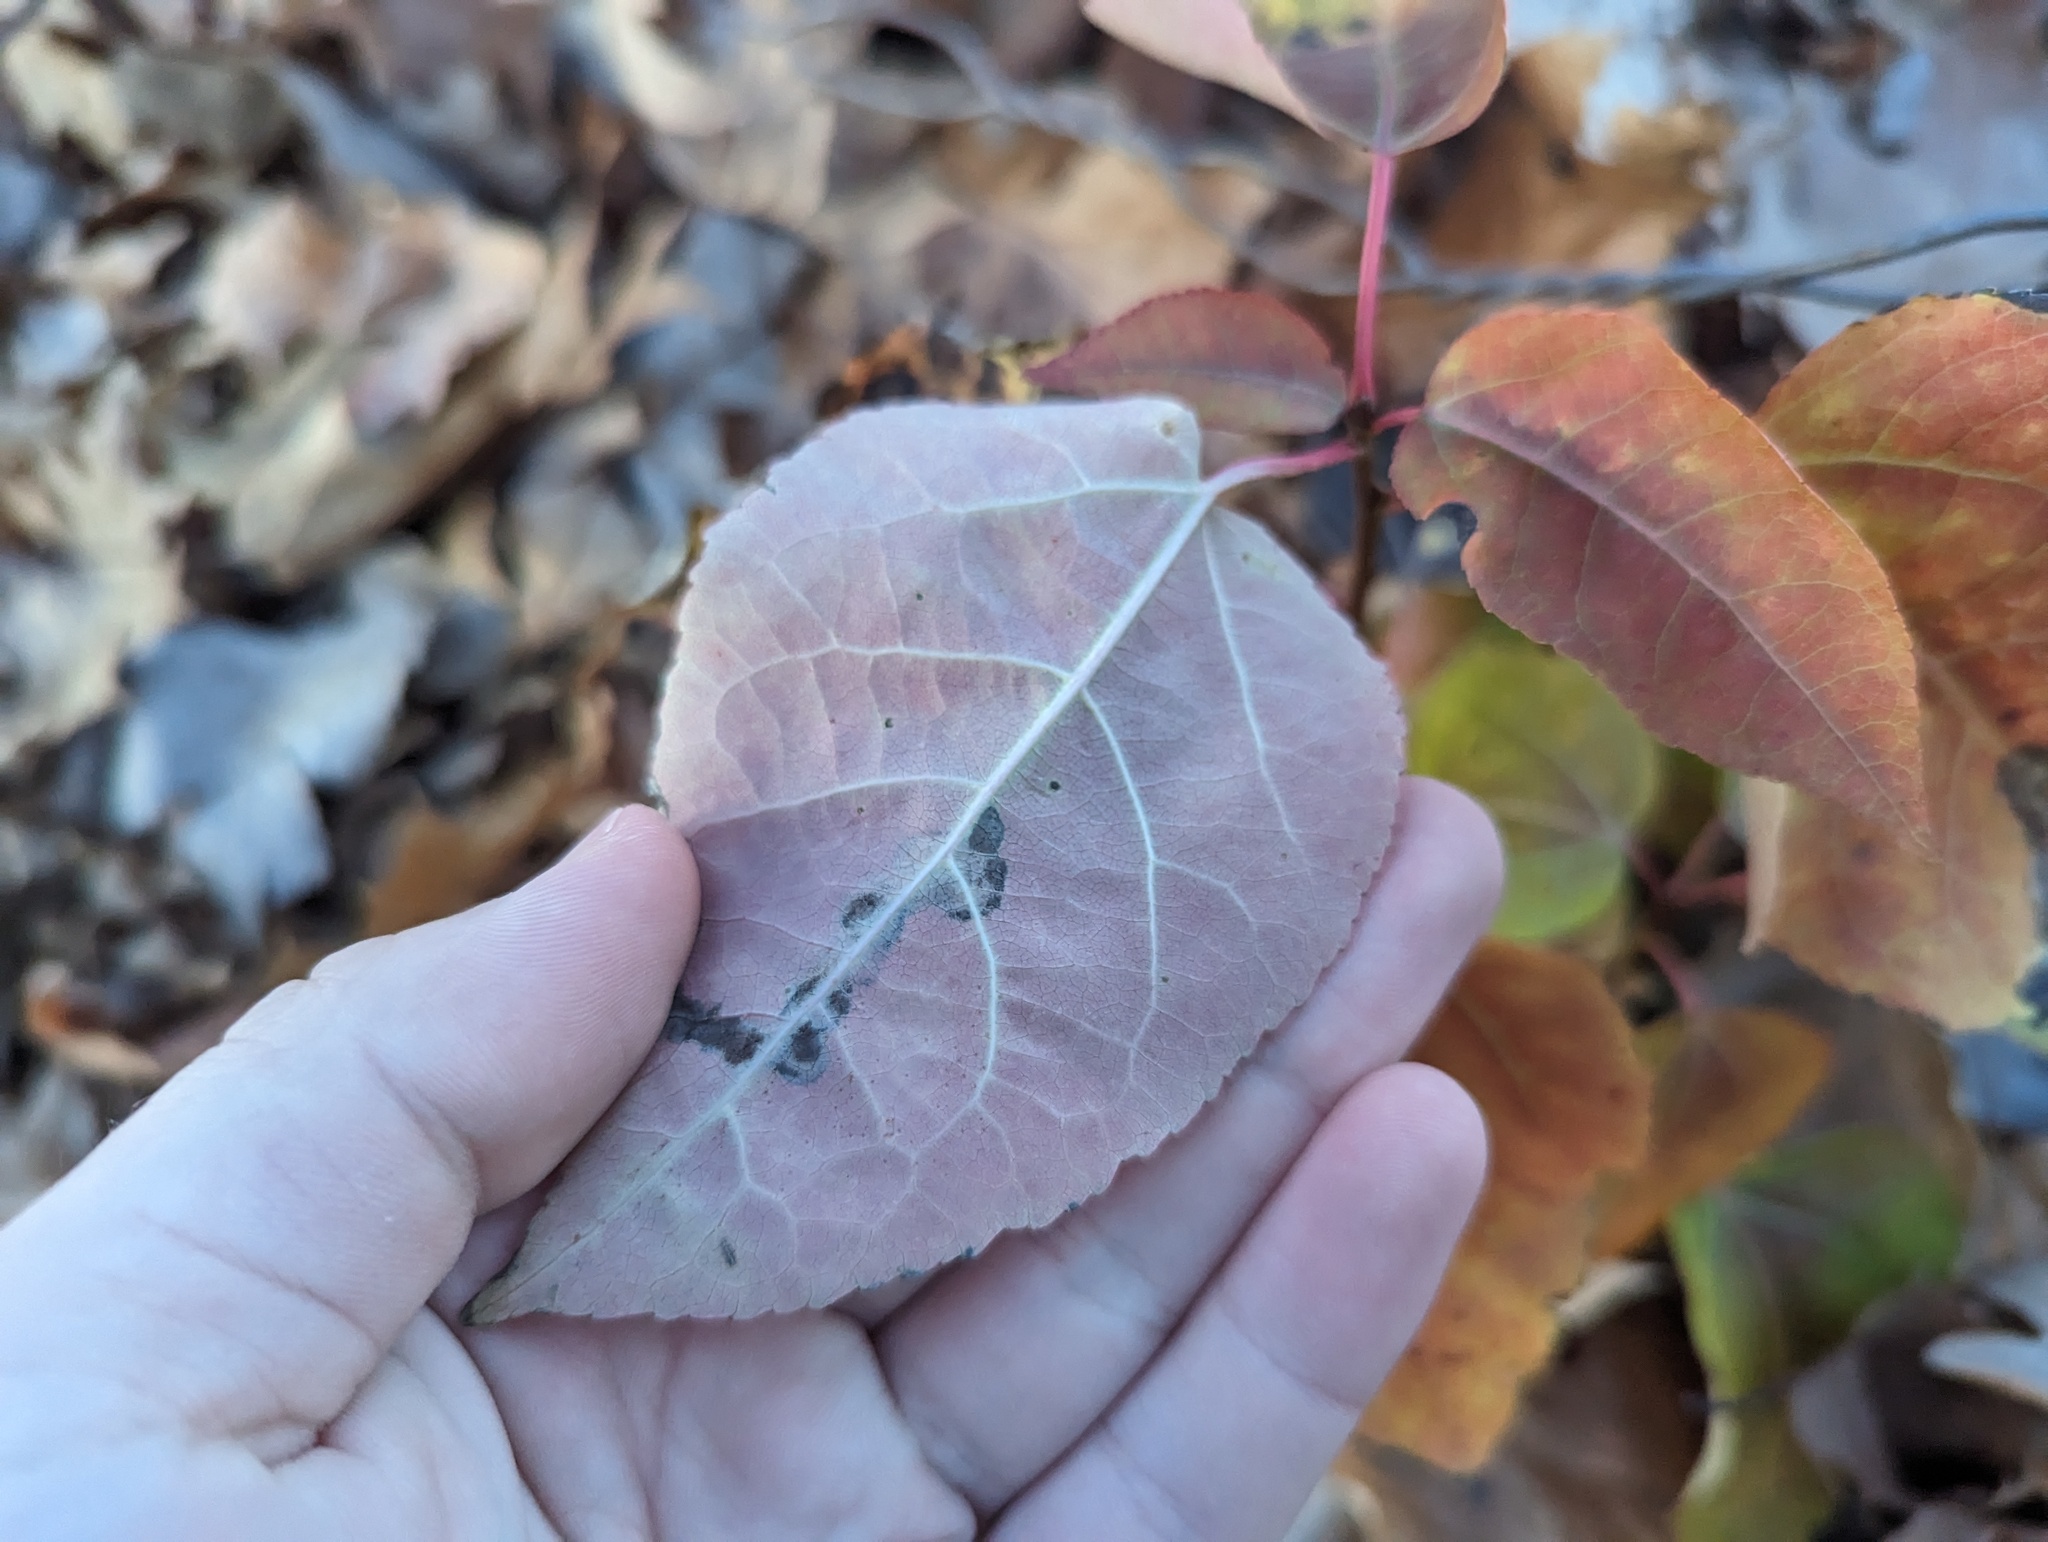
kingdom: Plantae
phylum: Tracheophyta
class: Magnoliopsida
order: Malpighiales
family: Salicaceae
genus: Populus
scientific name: Populus balsamifera
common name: Balsam poplar
